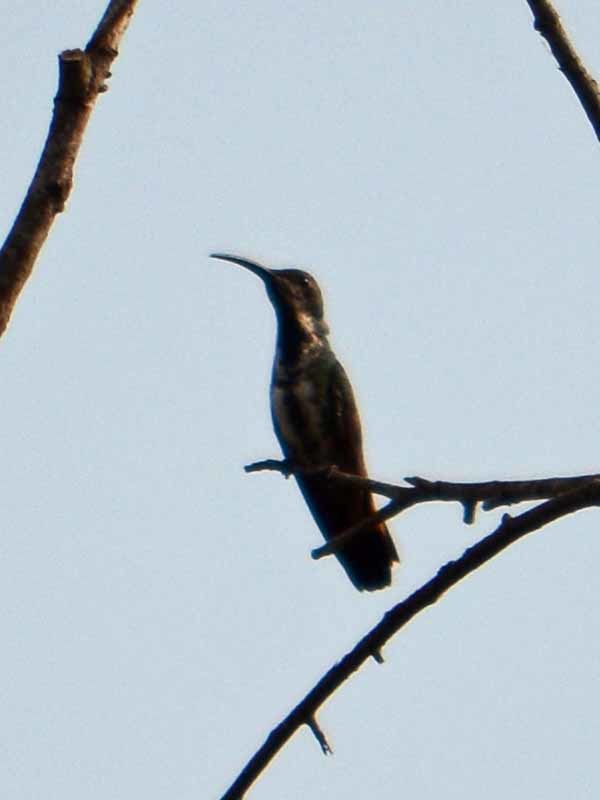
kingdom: Animalia
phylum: Chordata
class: Aves
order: Apodiformes
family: Trochilidae
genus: Anthracothorax
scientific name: Anthracothorax prevostii
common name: Green-breasted mango
